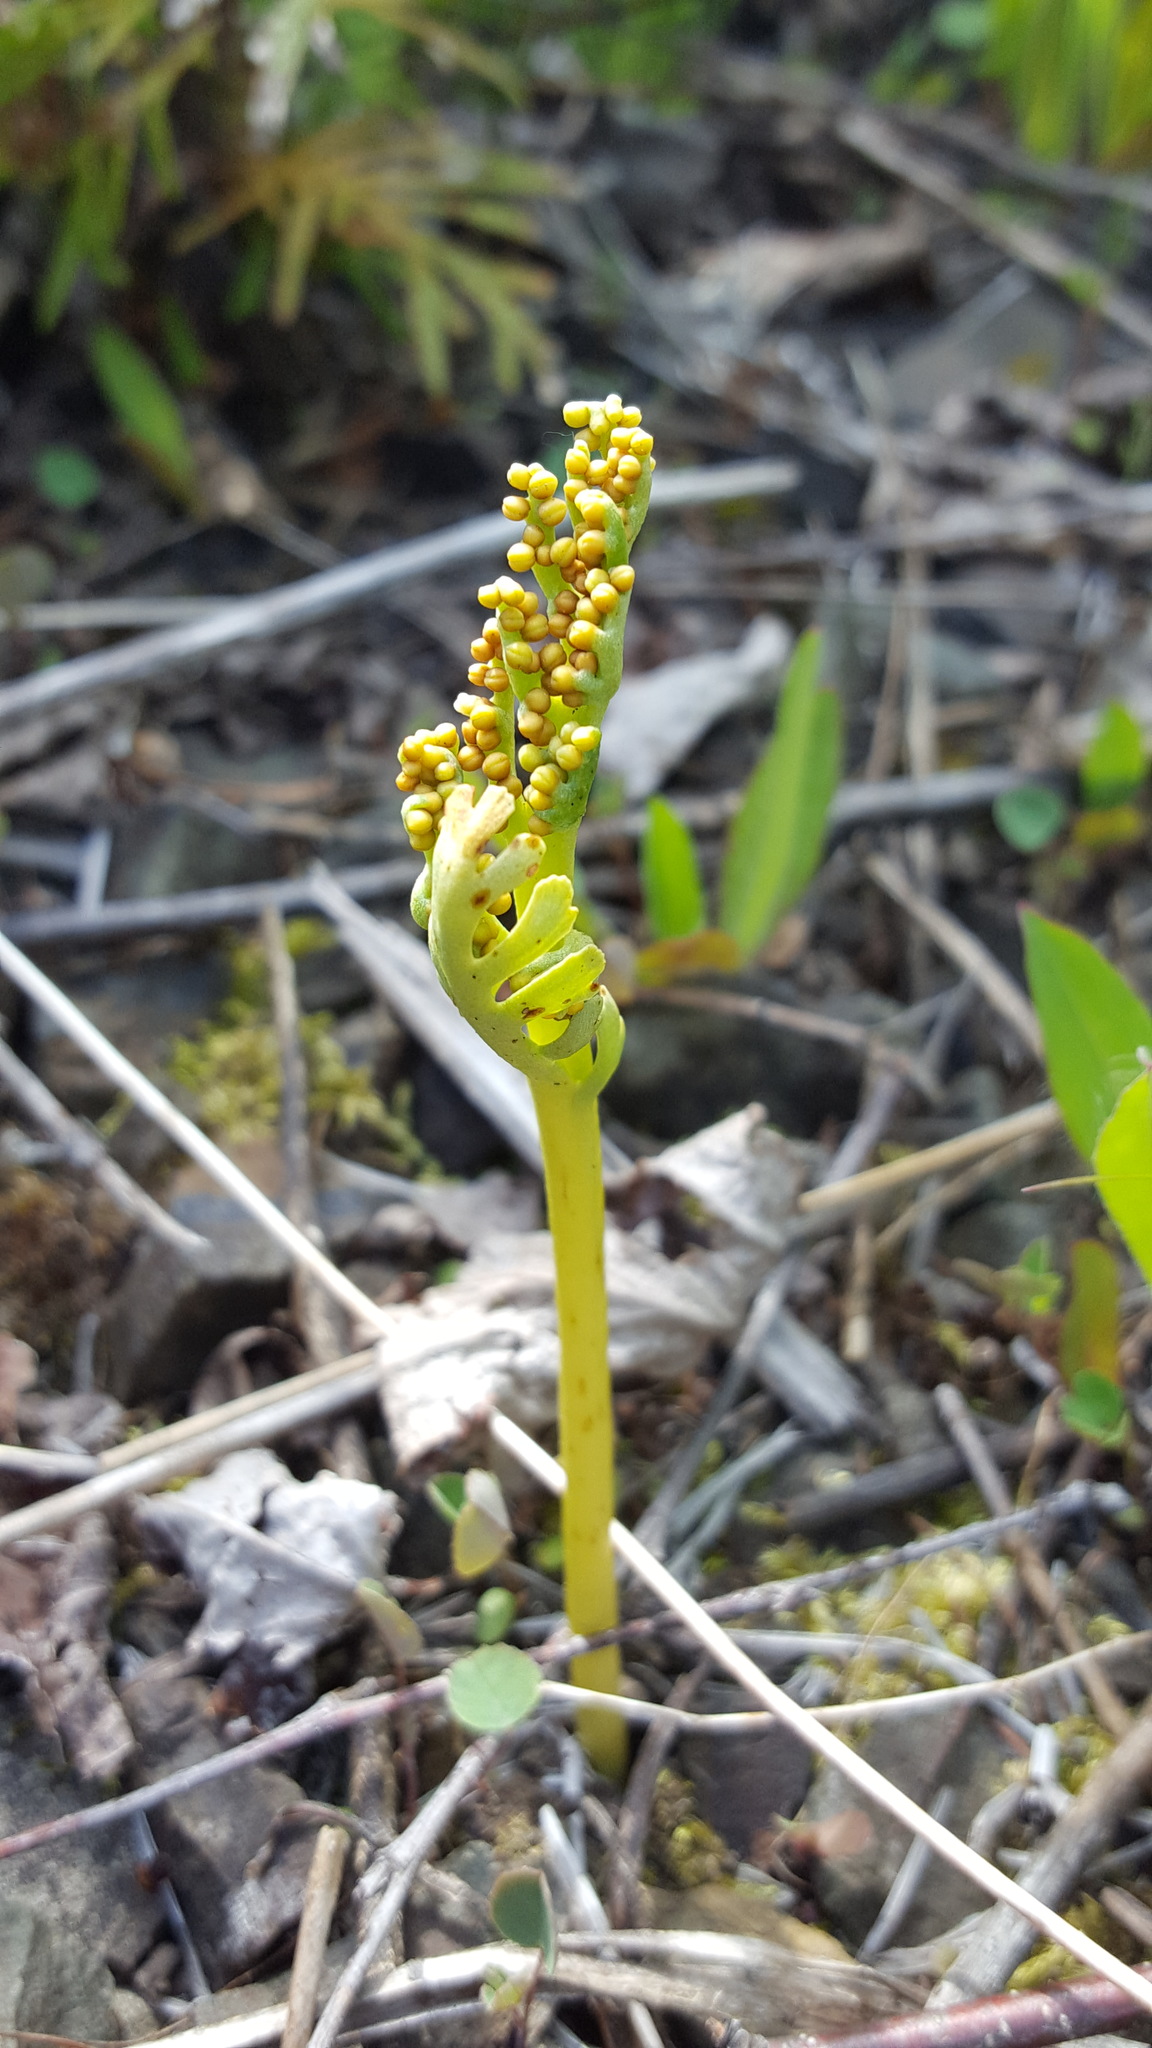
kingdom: Plantae
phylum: Tracheophyta
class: Polypodiopsida
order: Ophioglossales
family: Ophioglossaceae
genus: Botrychium
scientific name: Botrychium campestre
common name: Prairie moonwort
